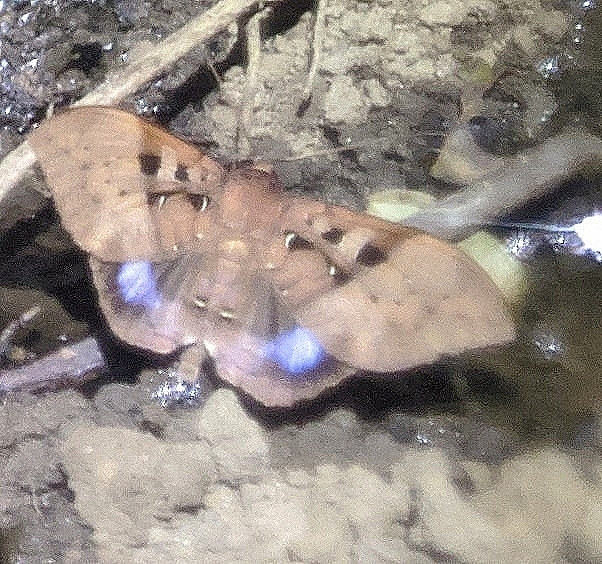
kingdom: Animalia
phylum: Arthropoda
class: Insecta
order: Lepidoptera
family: Erebidae
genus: Ischyja
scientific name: Ischyja marapok
